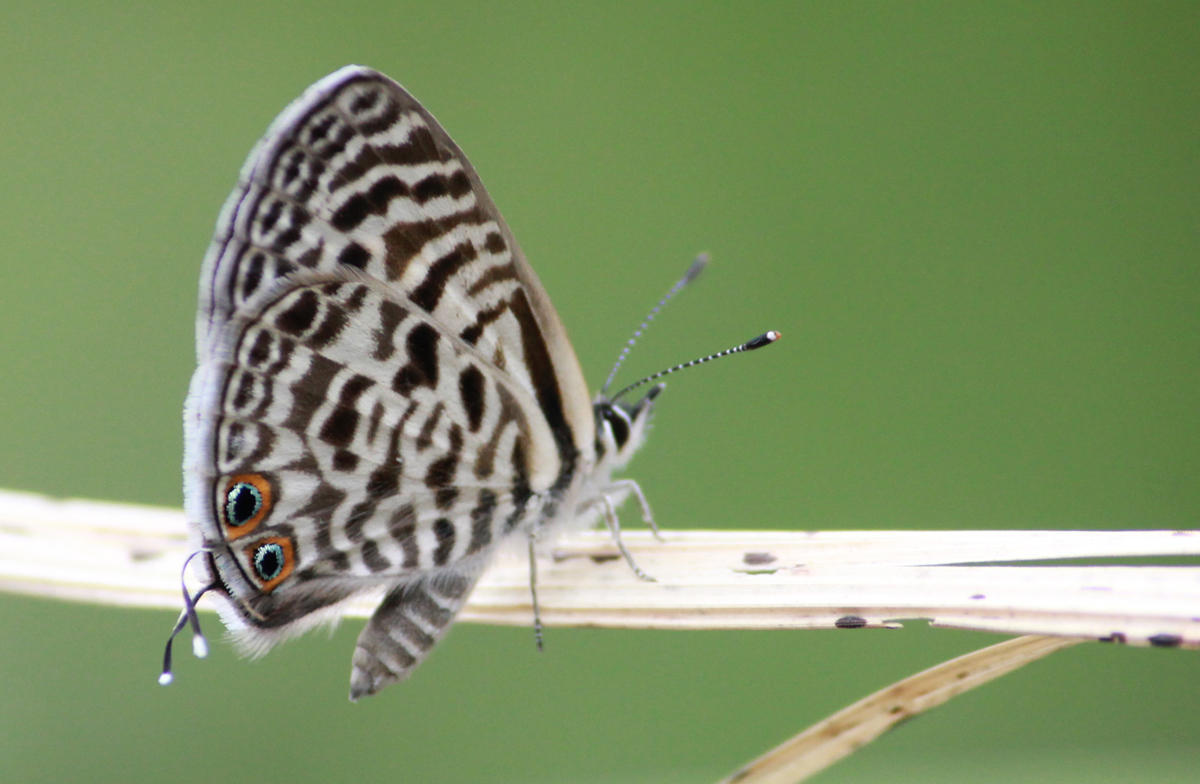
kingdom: Animalia
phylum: Arthropoda
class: Insecta
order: Lepidoptera
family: Lycaenidae
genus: Leptotes
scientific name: Leptotes
